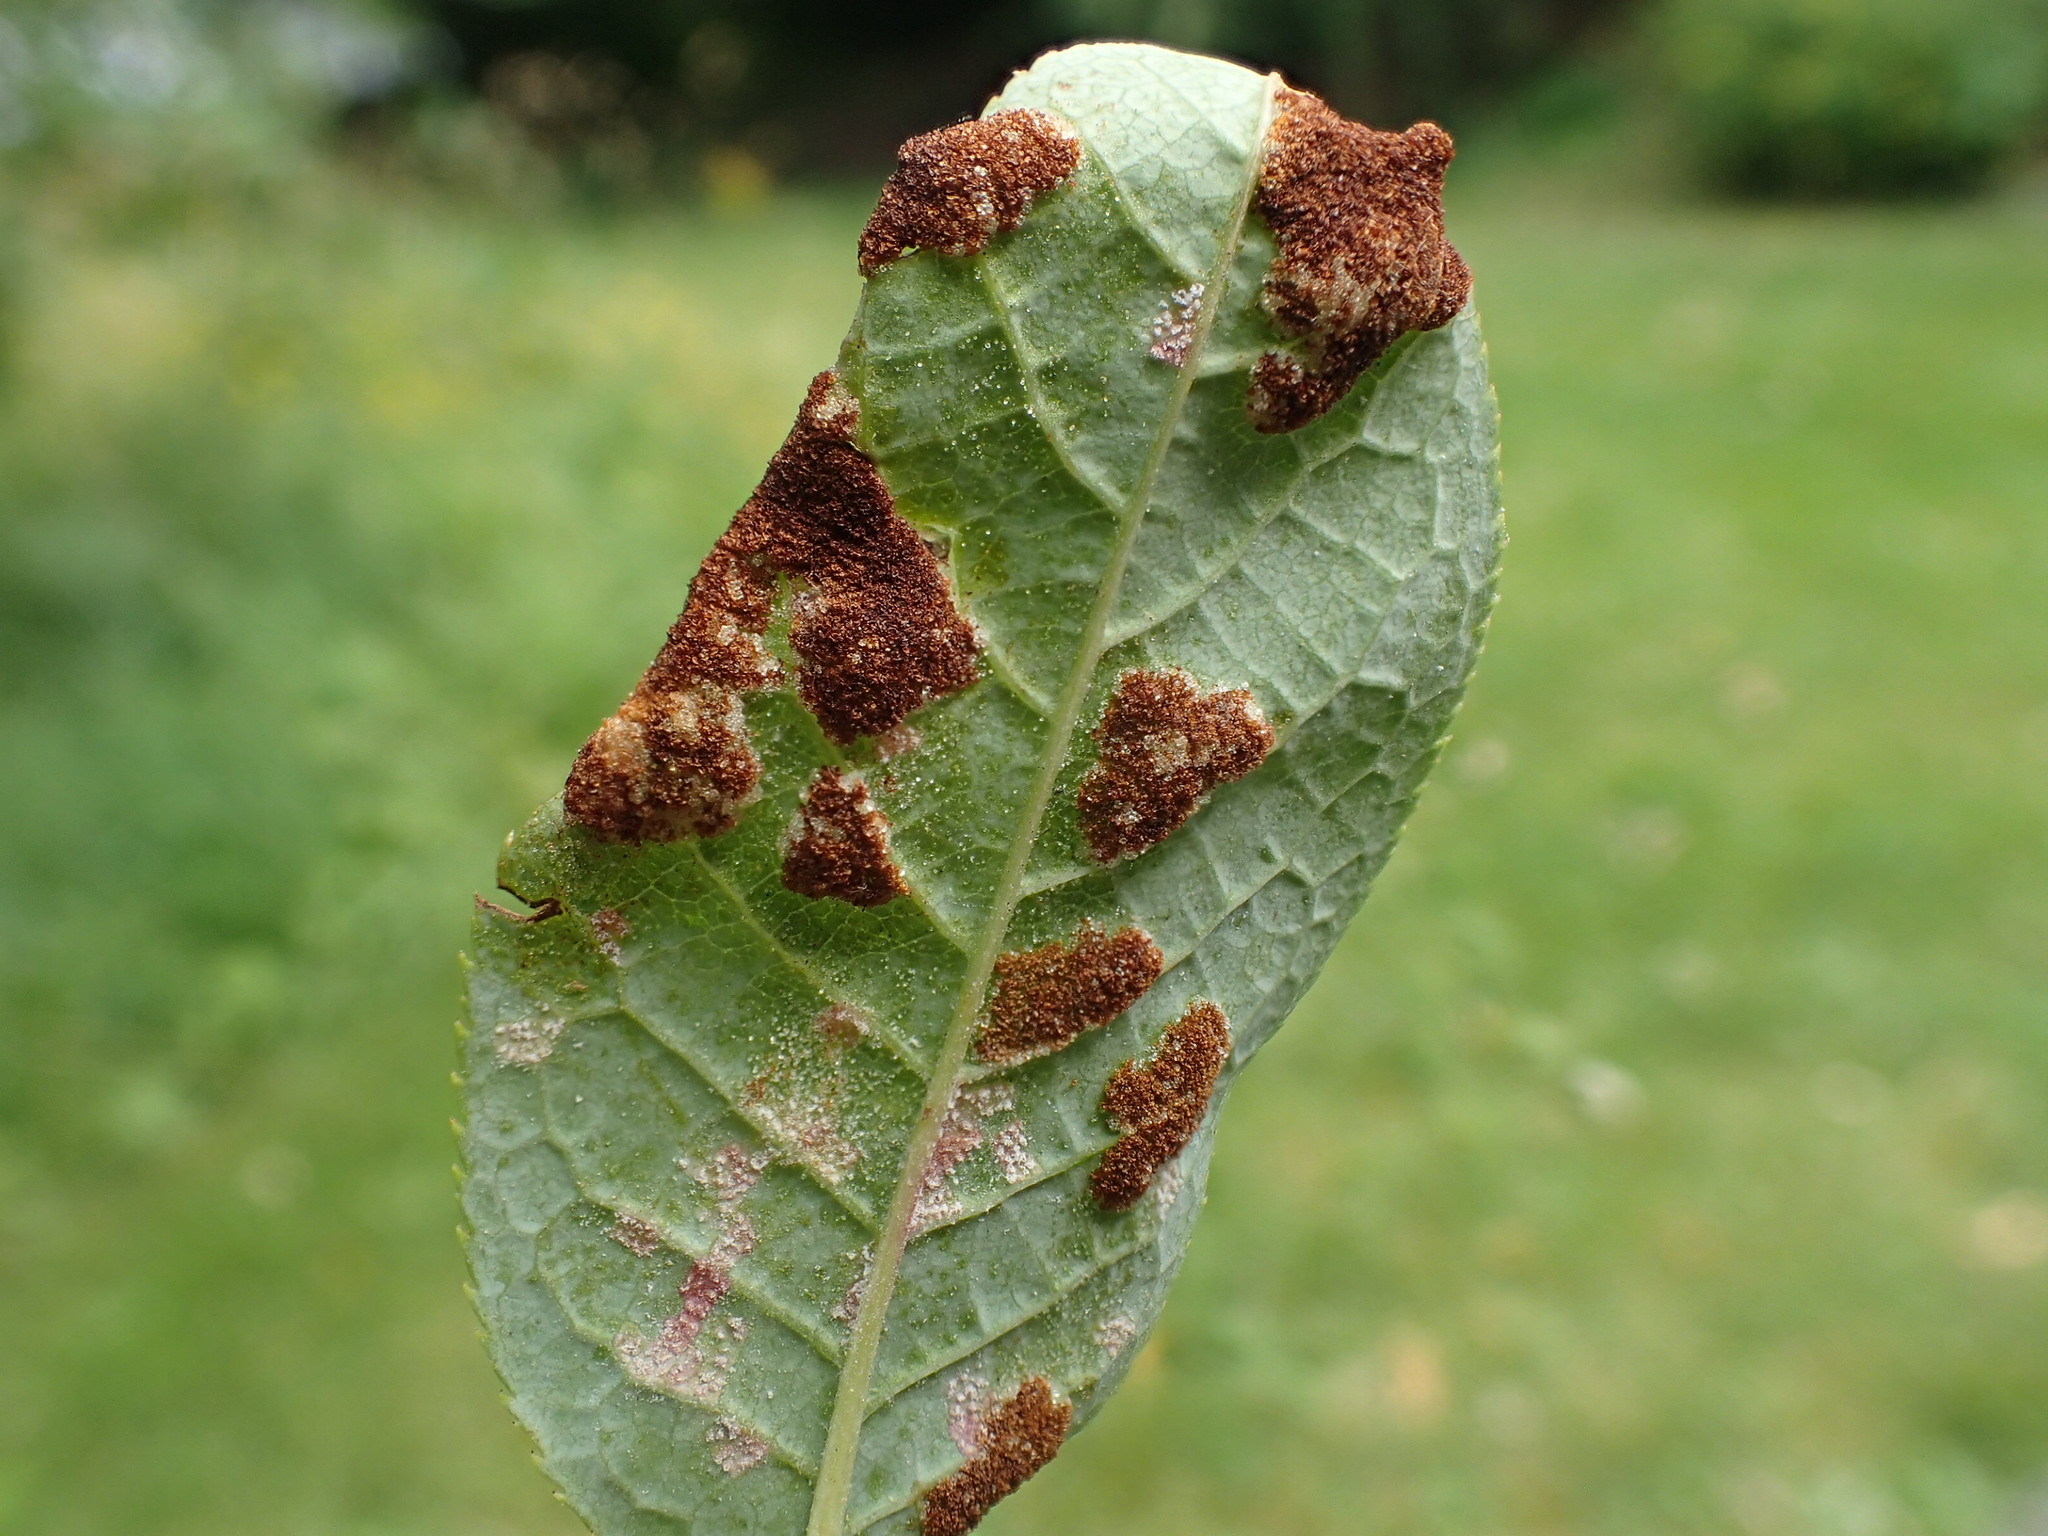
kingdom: Animalia
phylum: Arthropoda
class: Arachnida
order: Trombidiformes
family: Eriophyidae
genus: Eriophyes
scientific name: Eriophyes distinguendus
